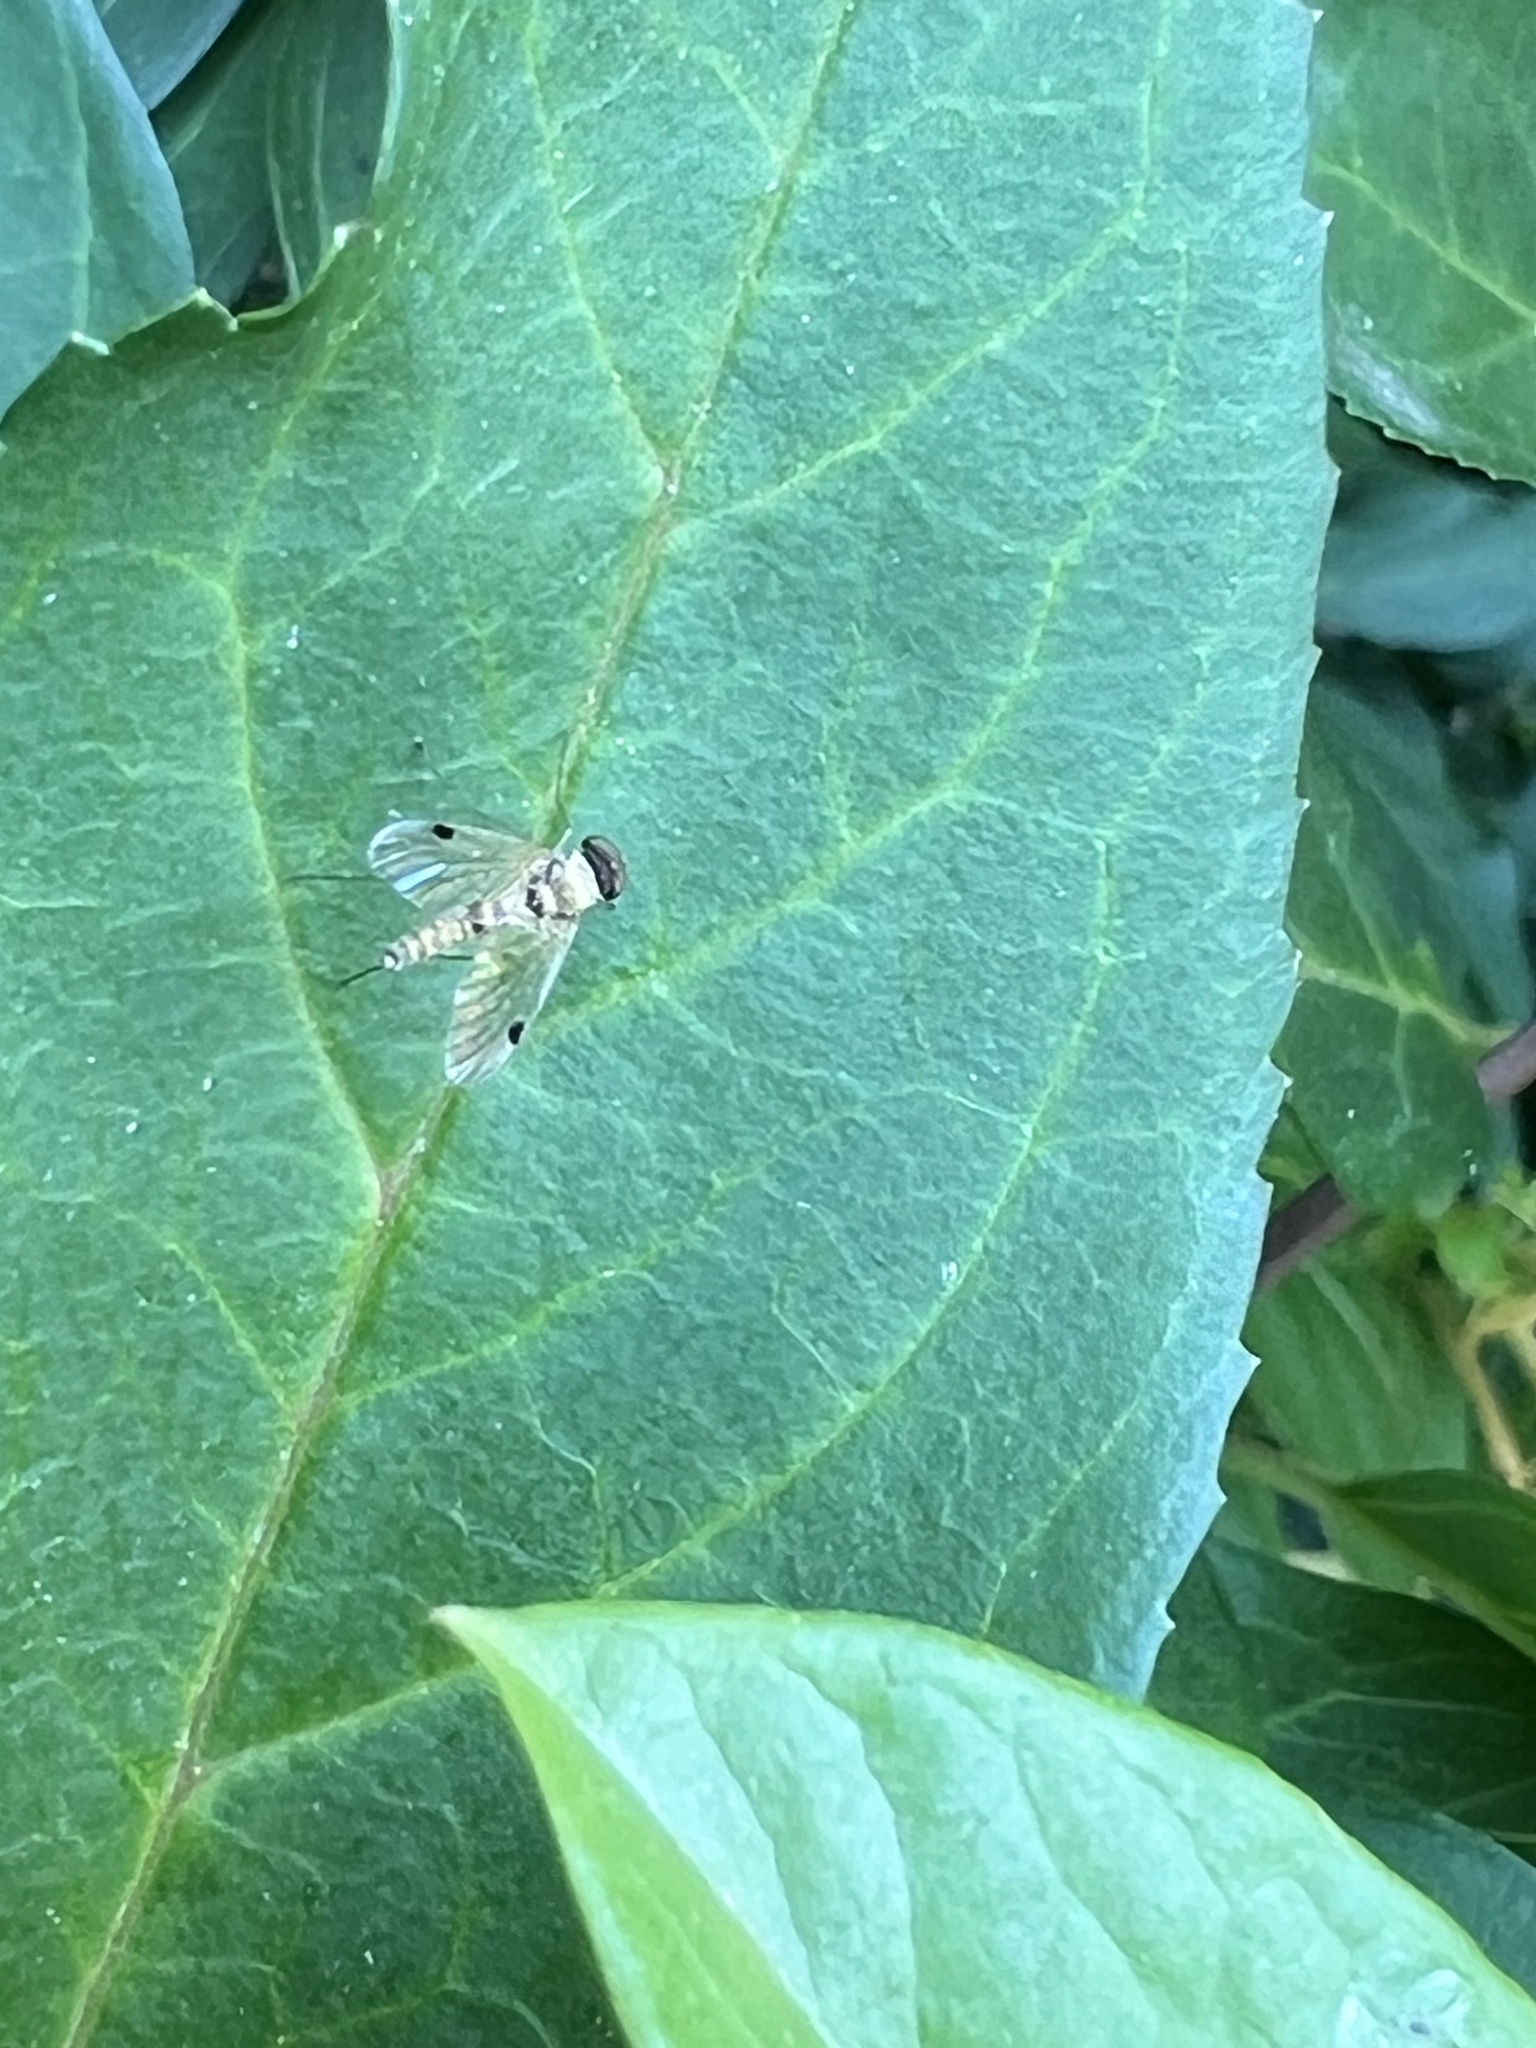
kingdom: Animalia
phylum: Arthropoda
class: Insecta
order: Diptera
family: Rhagionidae
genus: Chrysopilus
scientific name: Chrysopilus modestus
